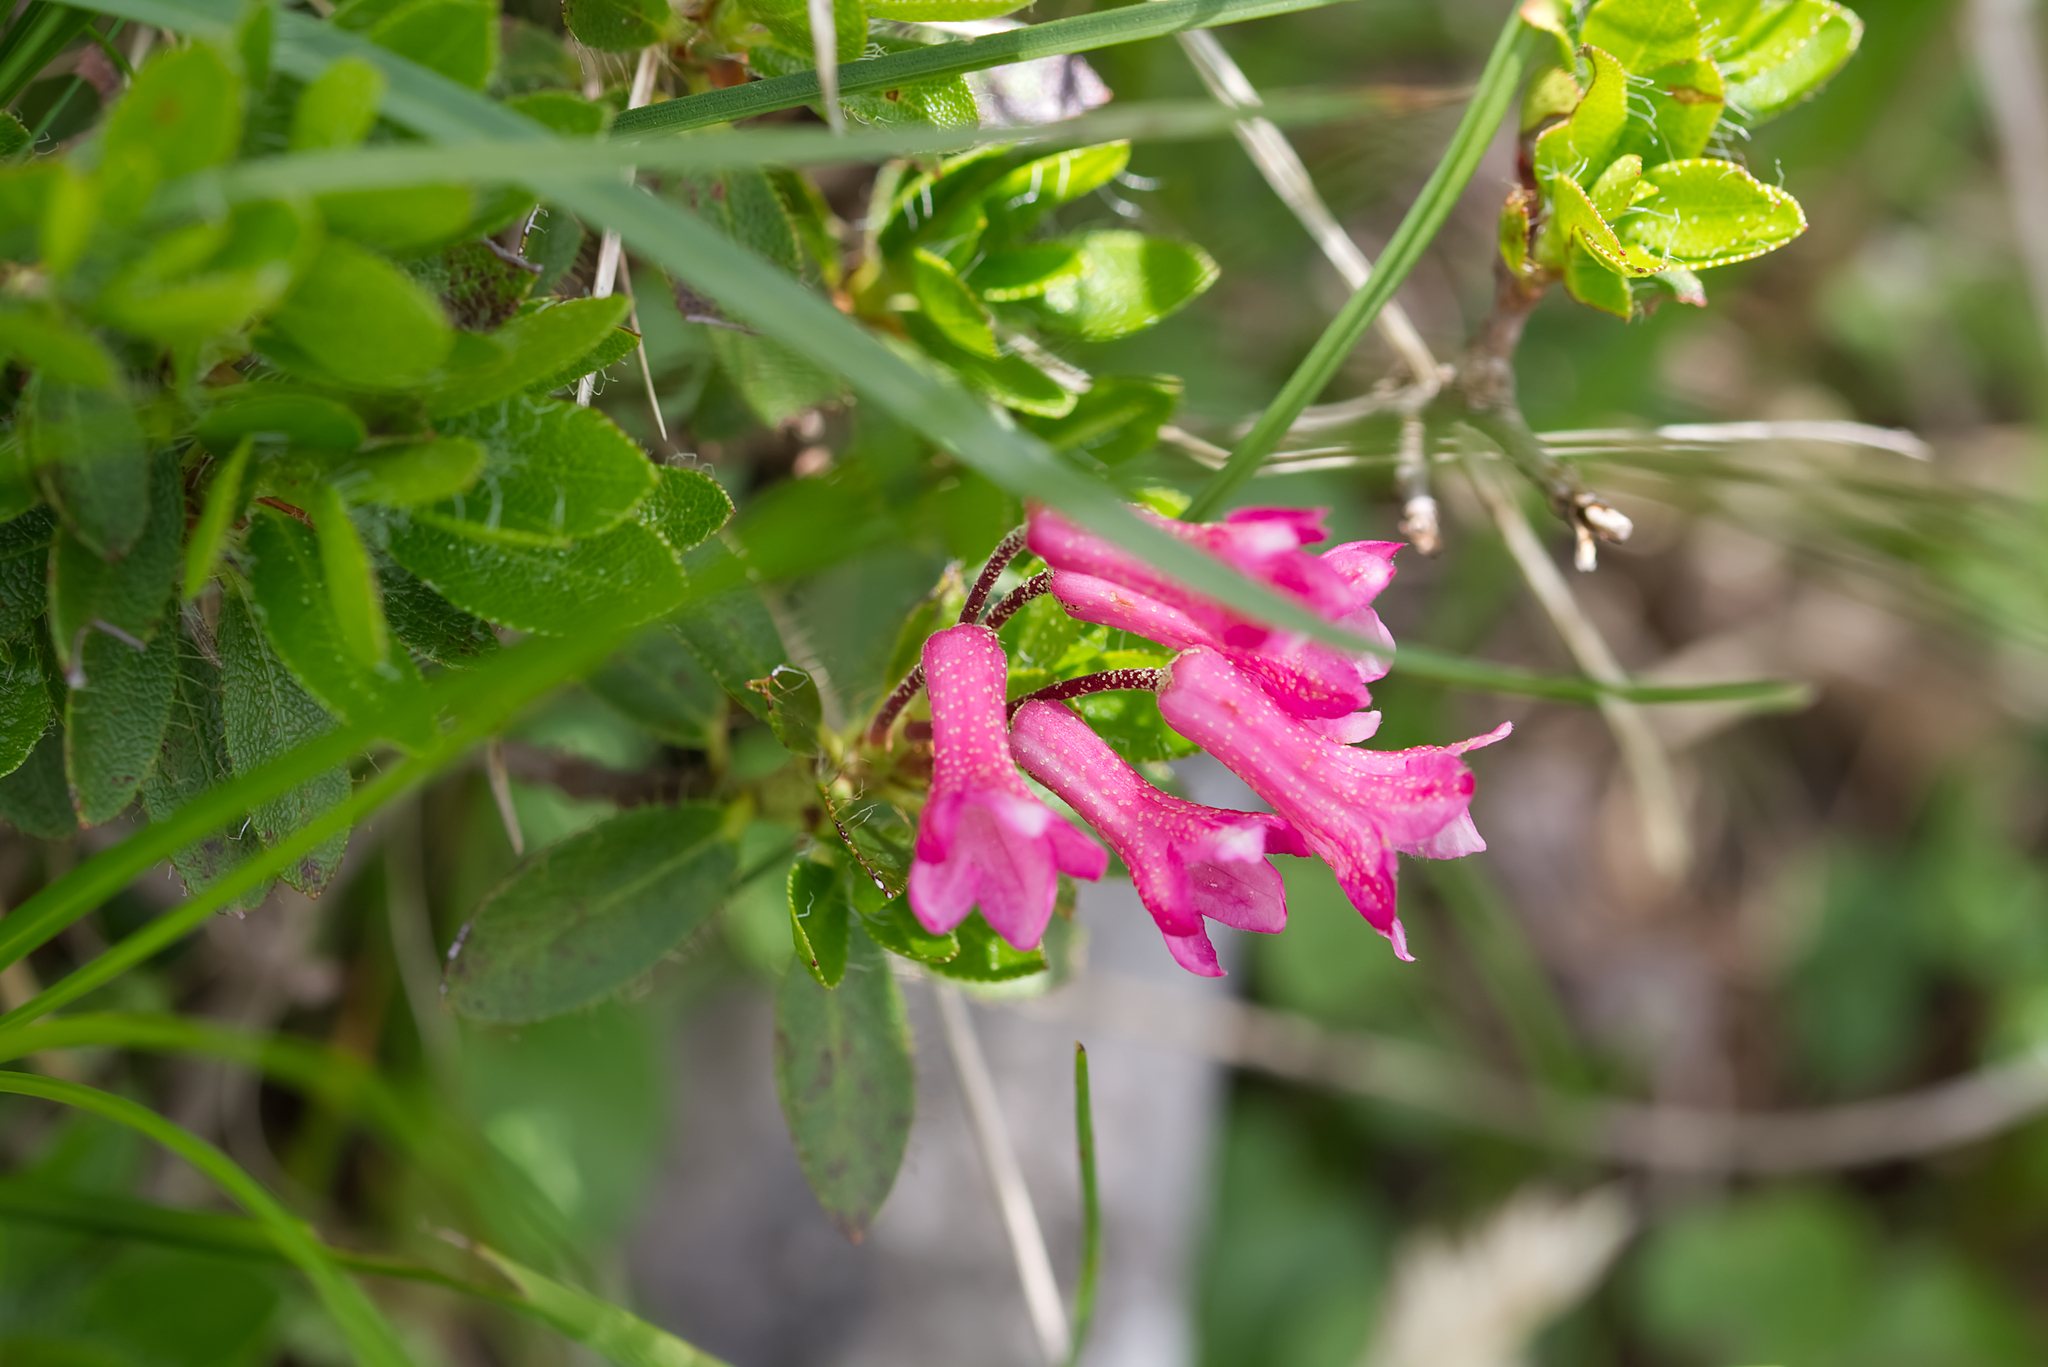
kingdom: Plantae
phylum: Tracheophyta
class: Magnoliopsida
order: Ericales
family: Ericaceae
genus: Rhododendron
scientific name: Rhododendron hirsutum
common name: Hairy alpenrose
